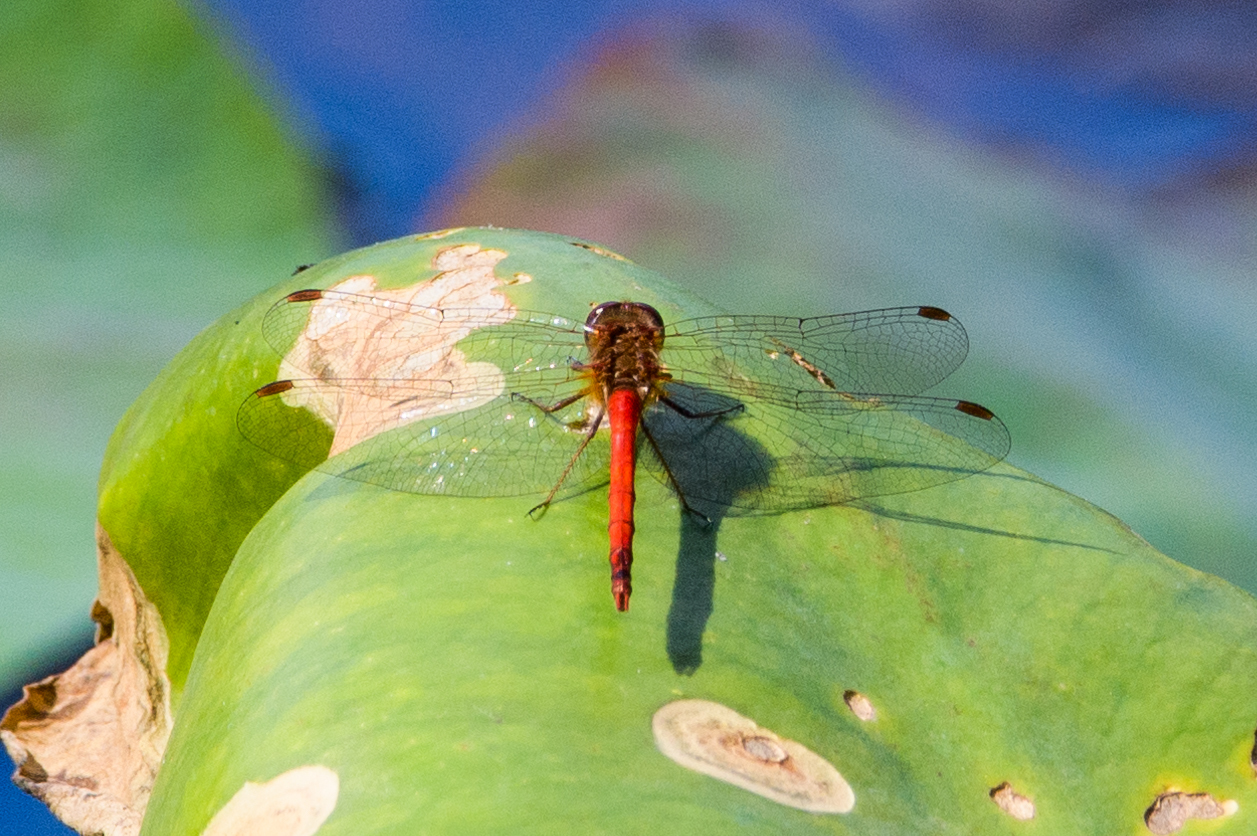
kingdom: Animalia
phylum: Arthropoda
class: Insecta
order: Odonata
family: Libellulidae
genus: Sympetrum
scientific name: Sympetrum vicinum
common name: Autumn meadowhawk
